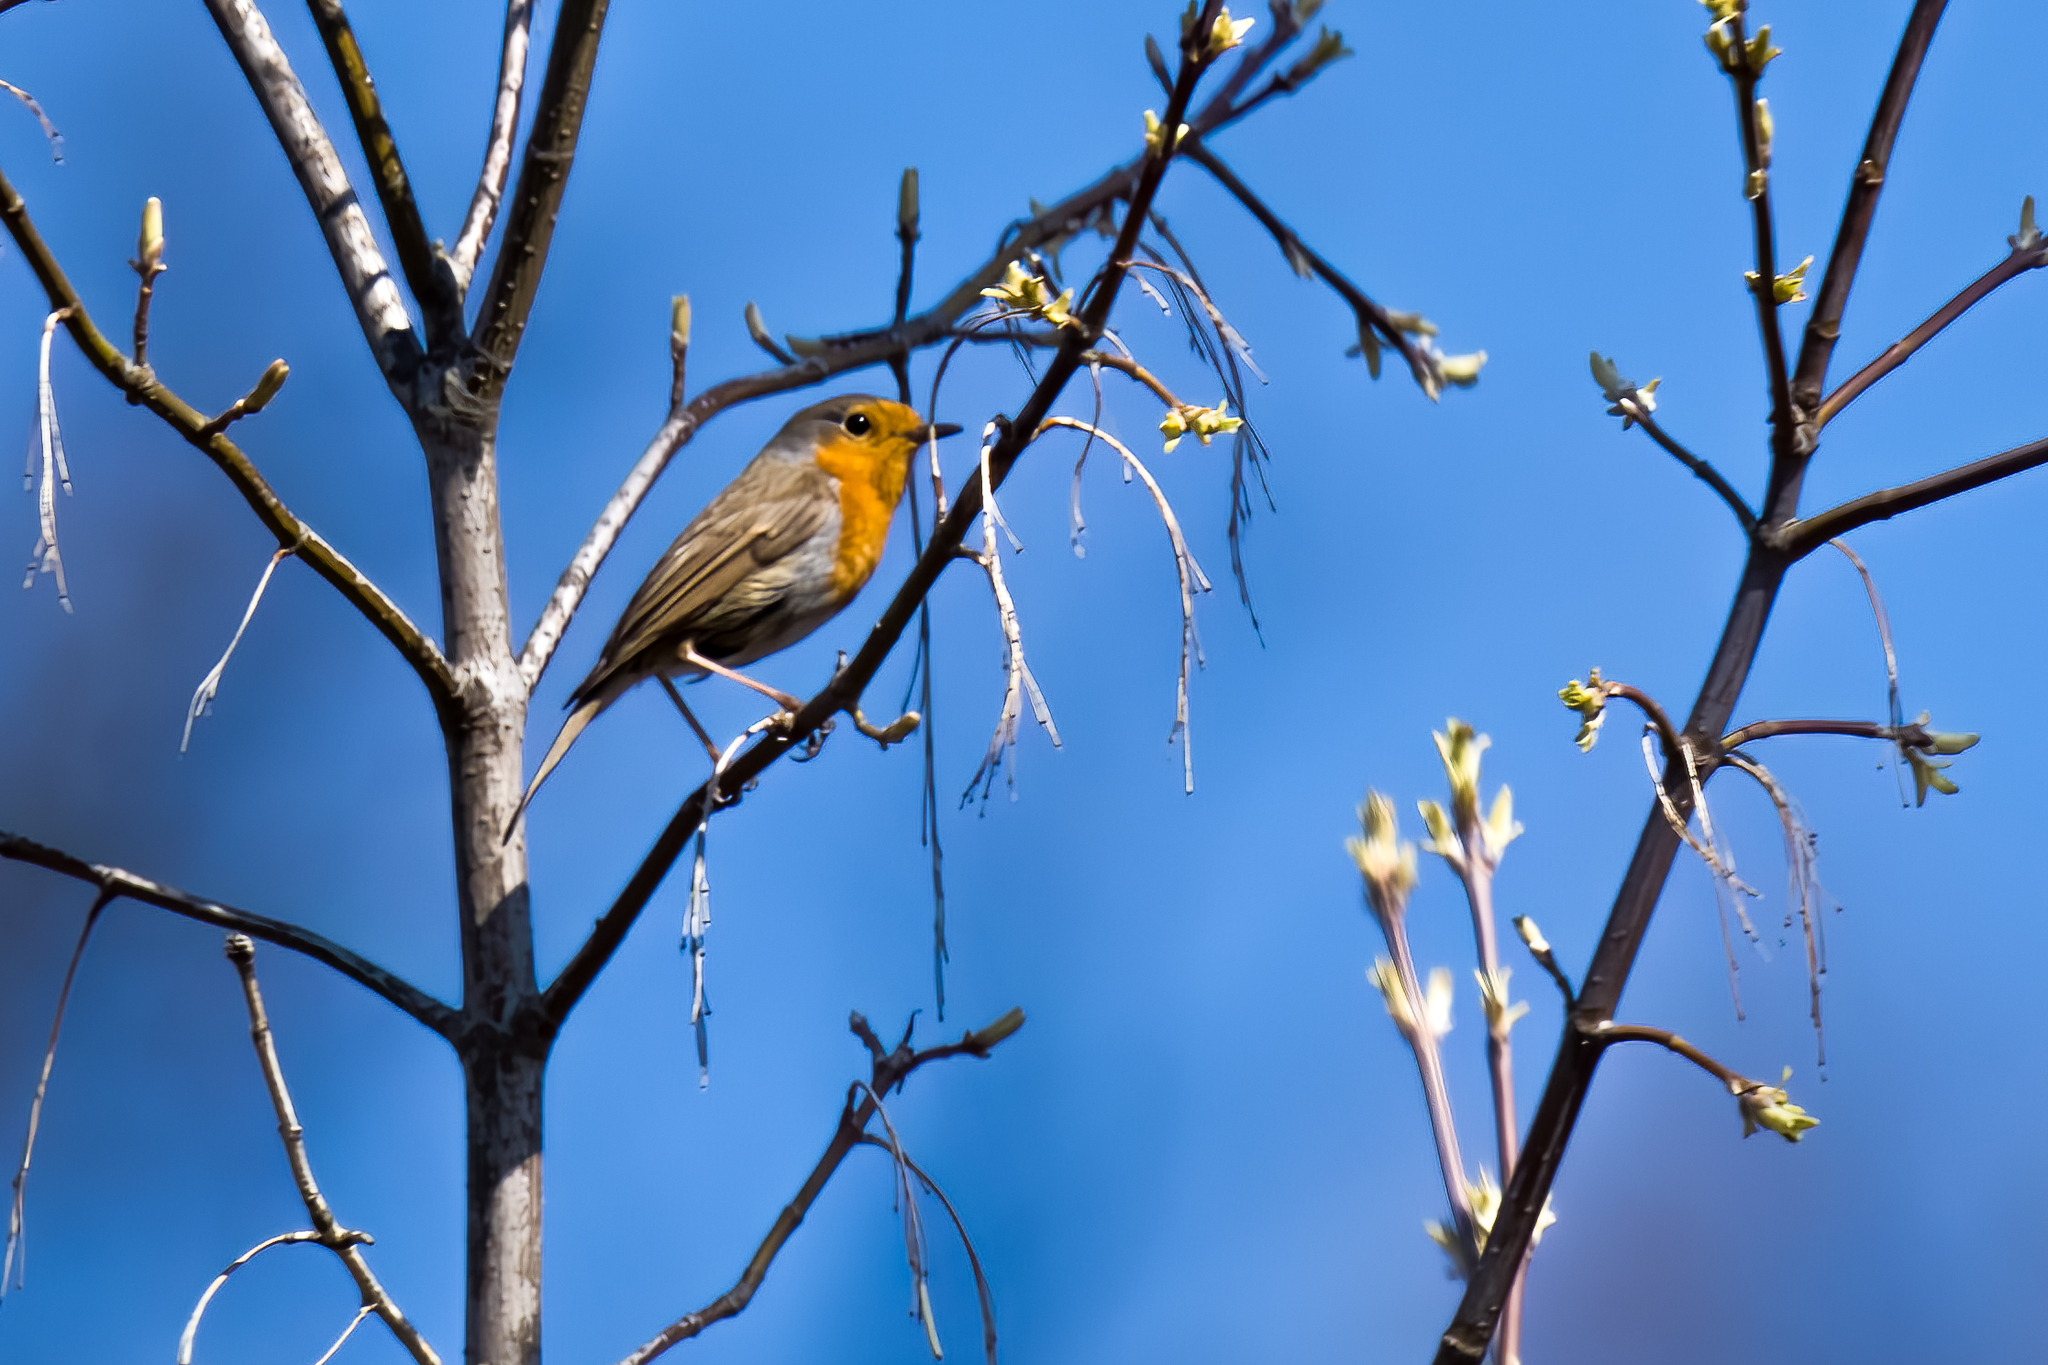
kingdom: Animalia
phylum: Chordata
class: Aves
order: Passeriformes
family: Muscicapidae
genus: Erithacus
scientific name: Erithacus rubecula
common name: European robin
